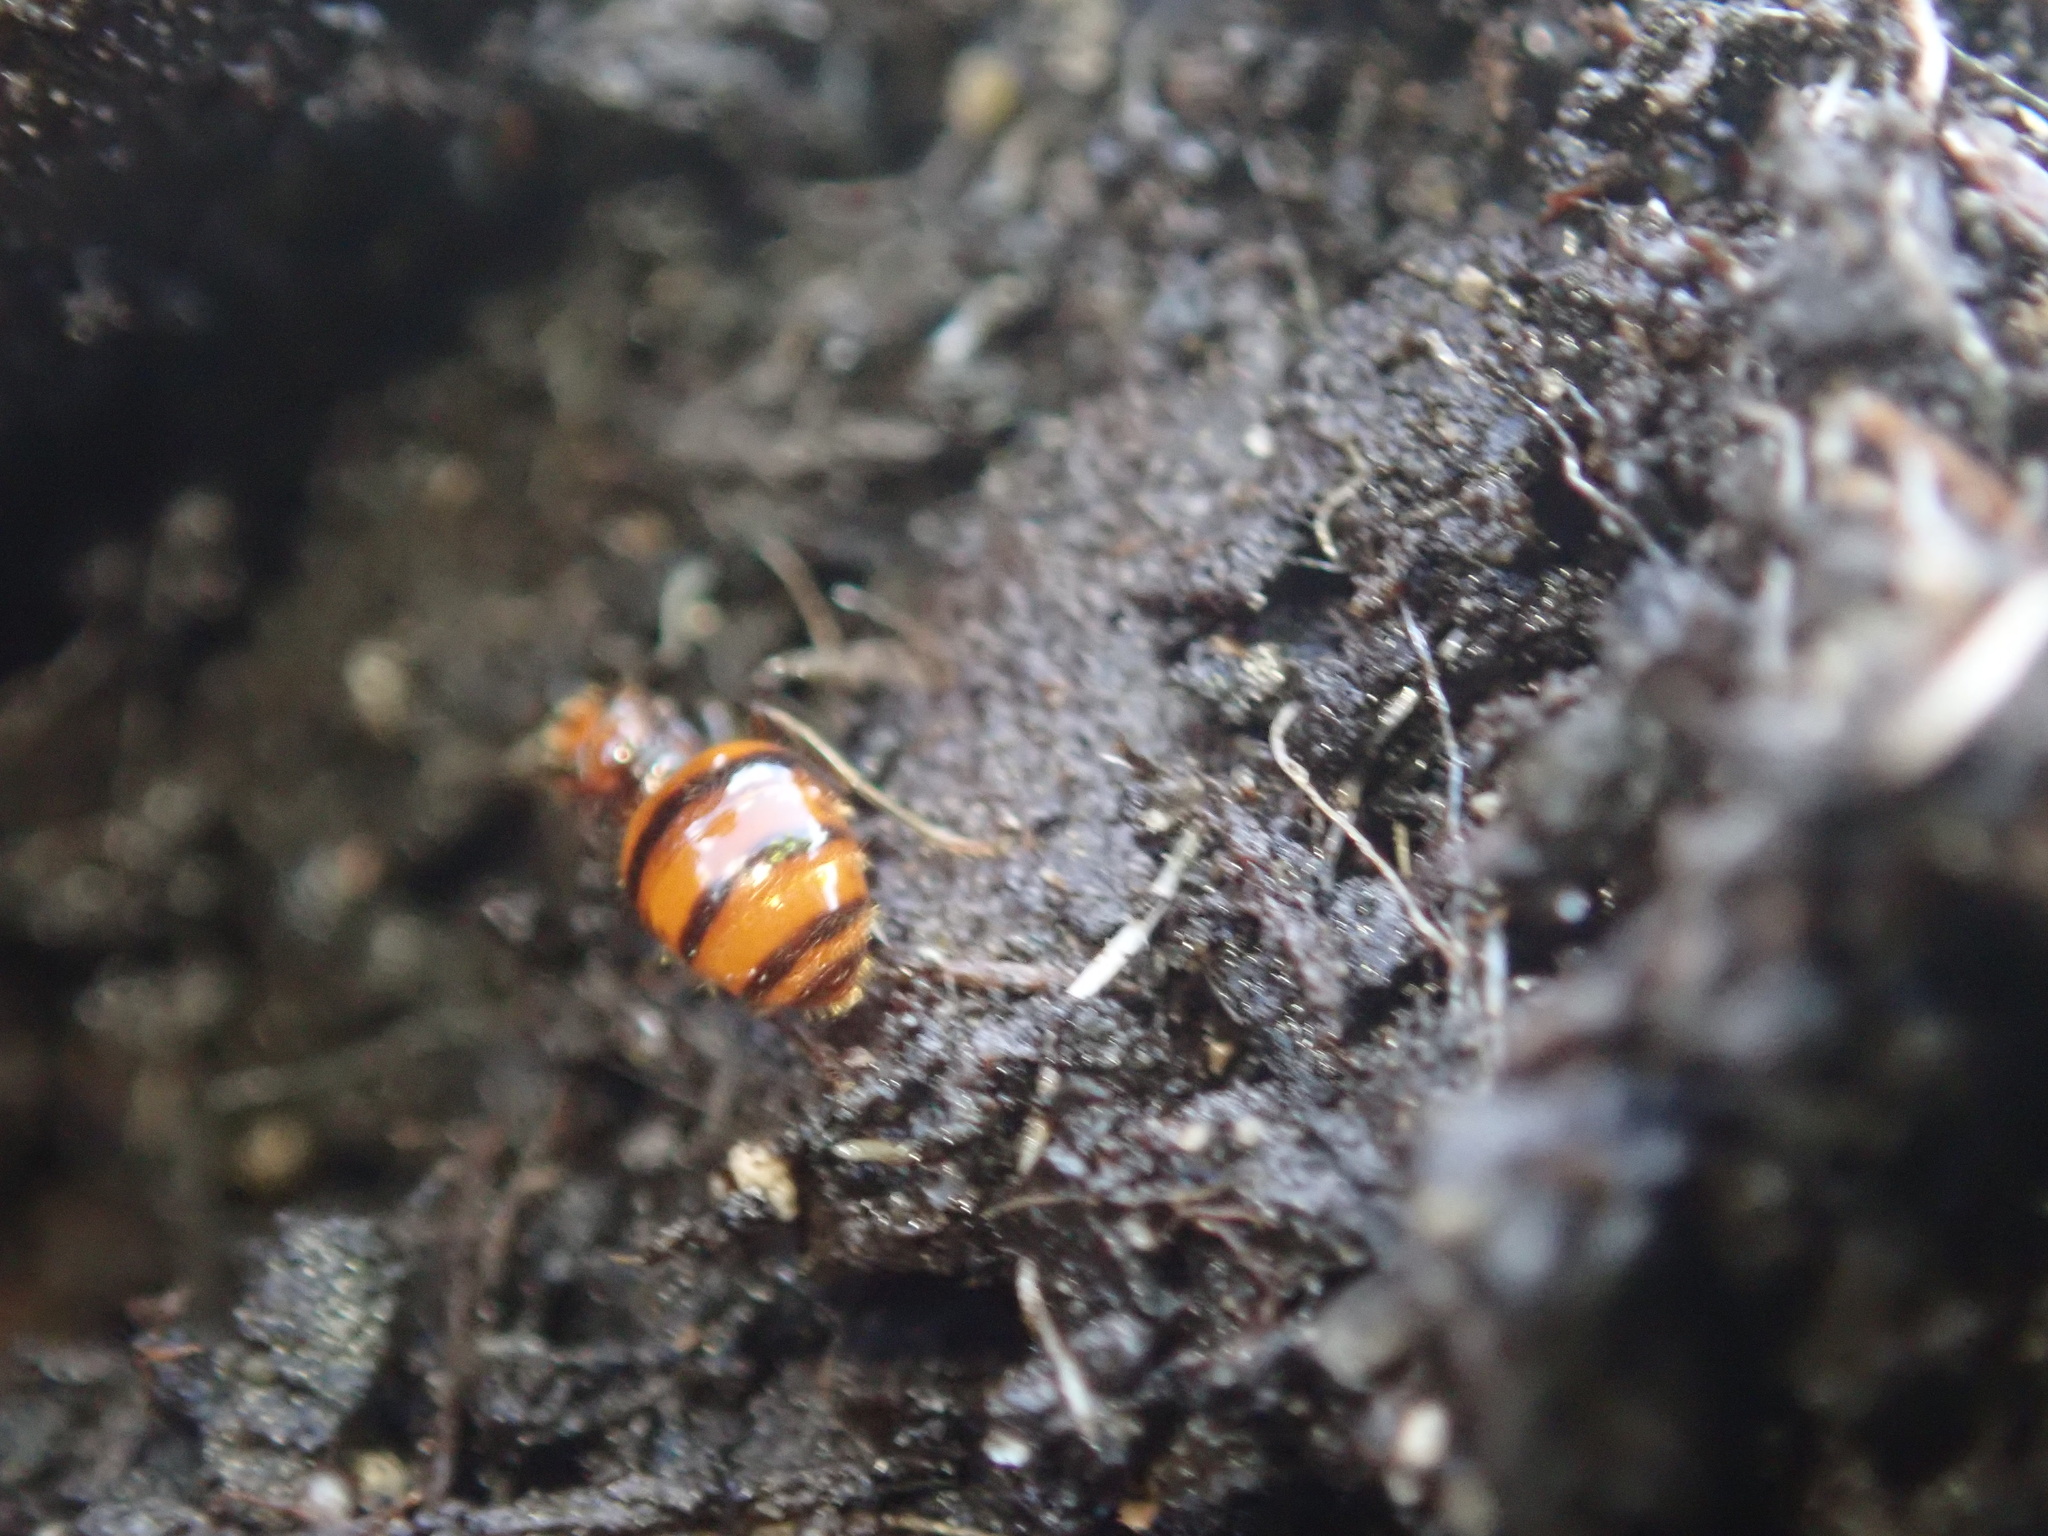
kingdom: Animalia
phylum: Arthropoda
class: Insecta
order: Hymenoptera
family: Formicidae
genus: Monomorium
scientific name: Monomorium antarcticum
